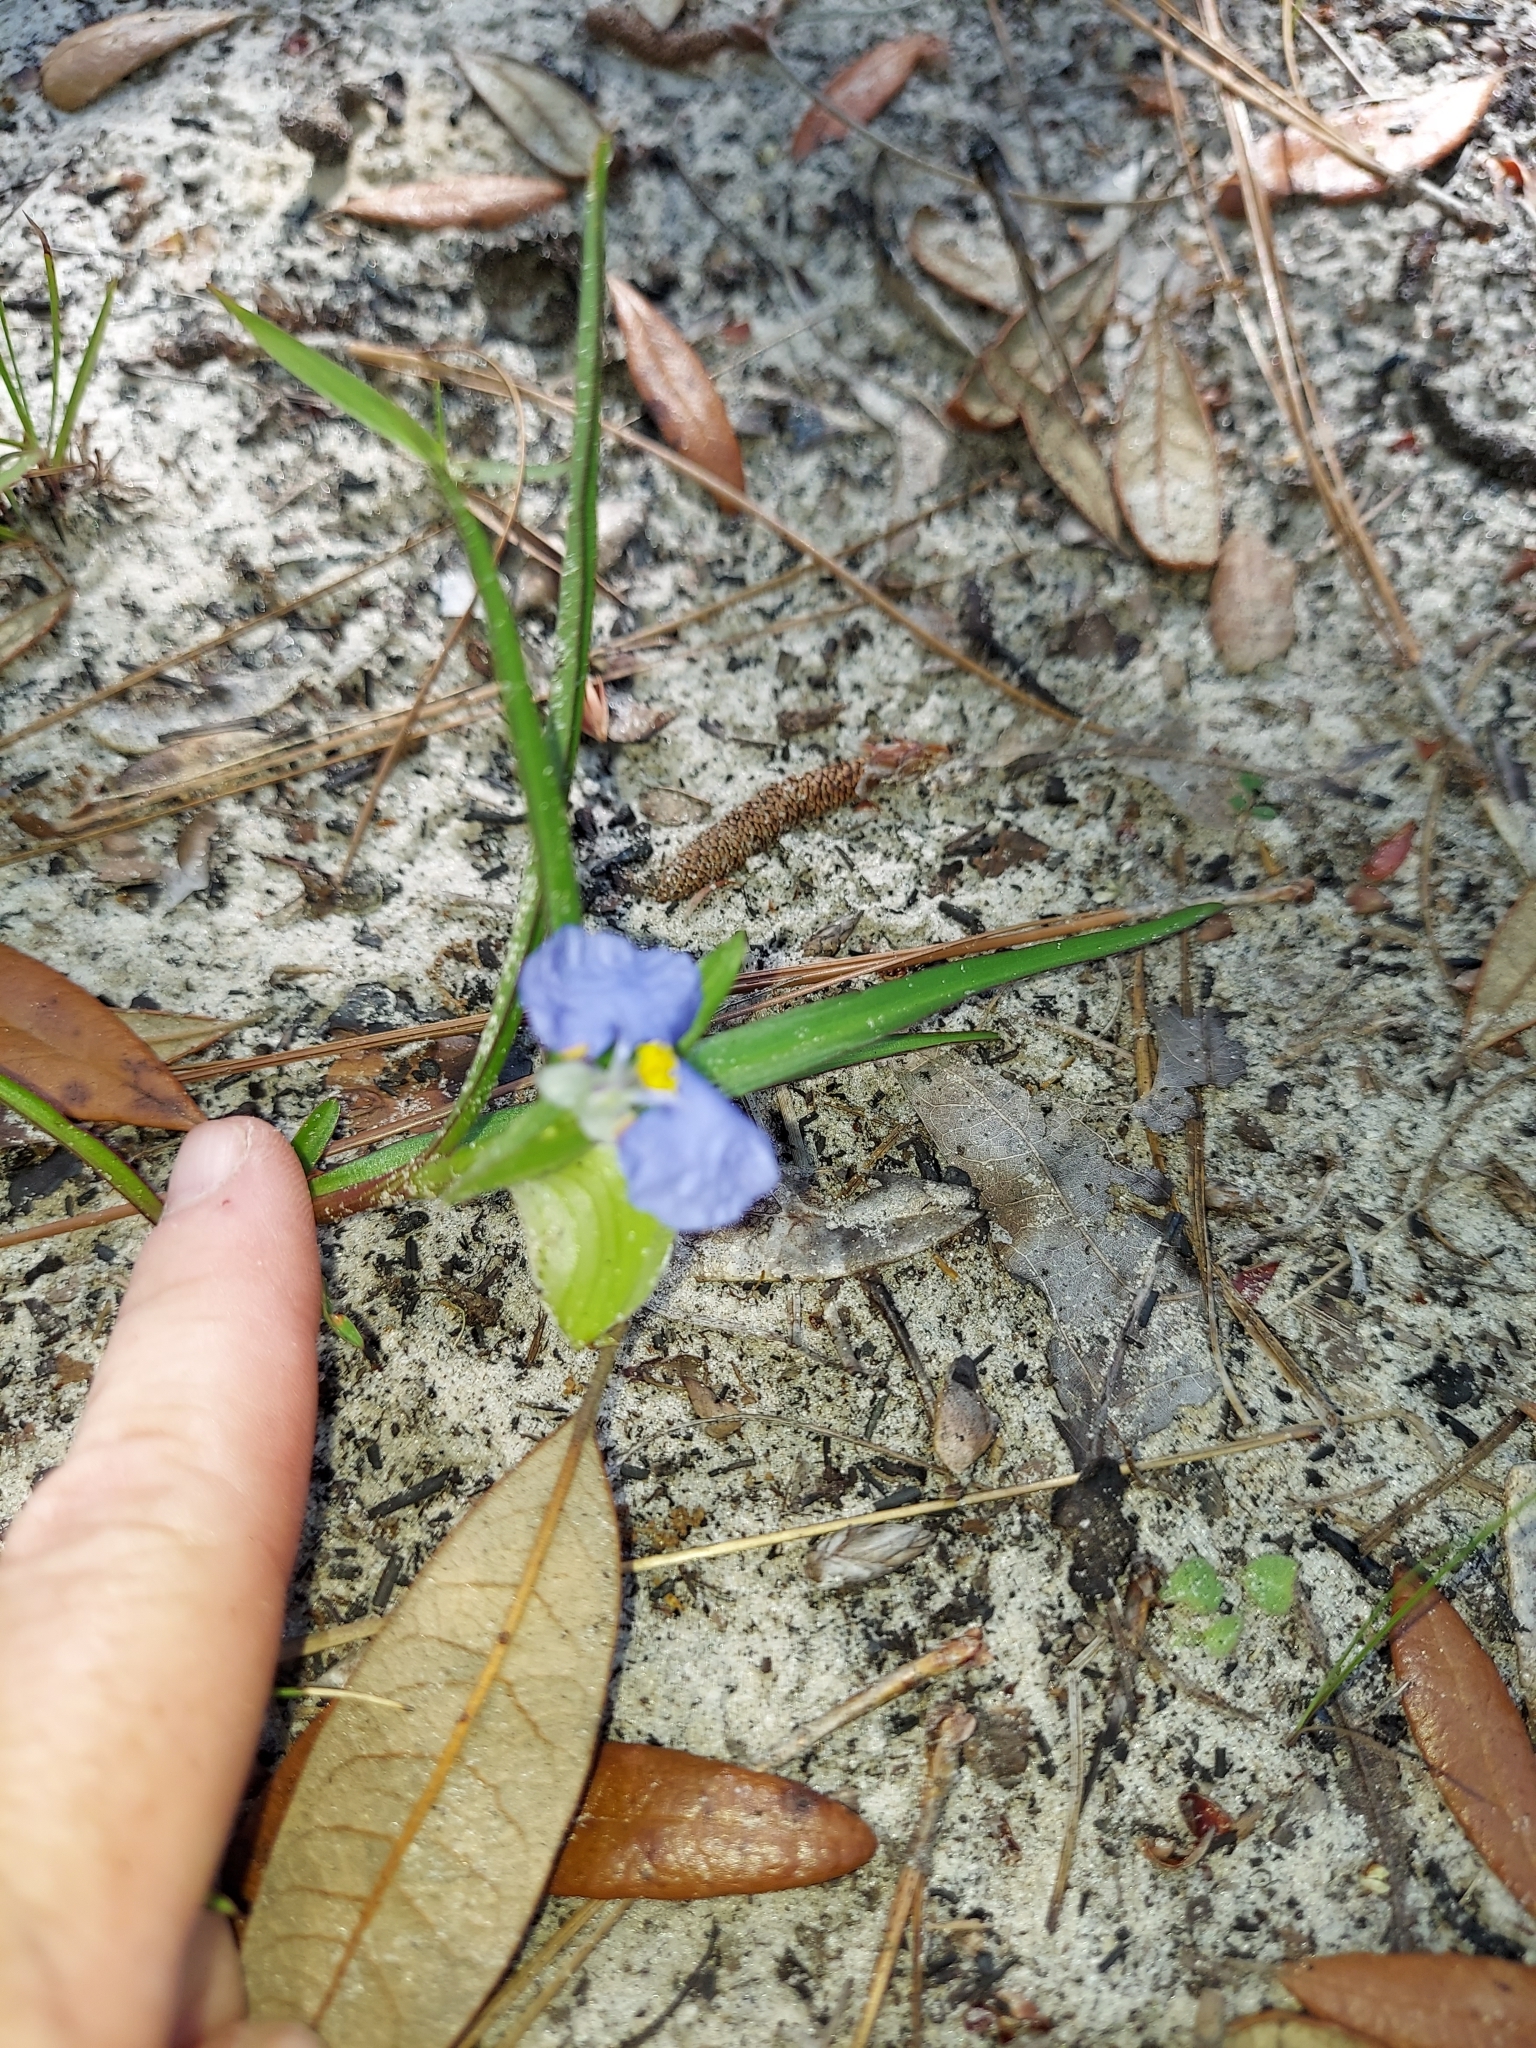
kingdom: Plantae
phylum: Tracheophyta
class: Liliopsida
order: Commelinales
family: Commelinaceae
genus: Commelina
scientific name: Commelina erecta
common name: Blousel blommetjie
